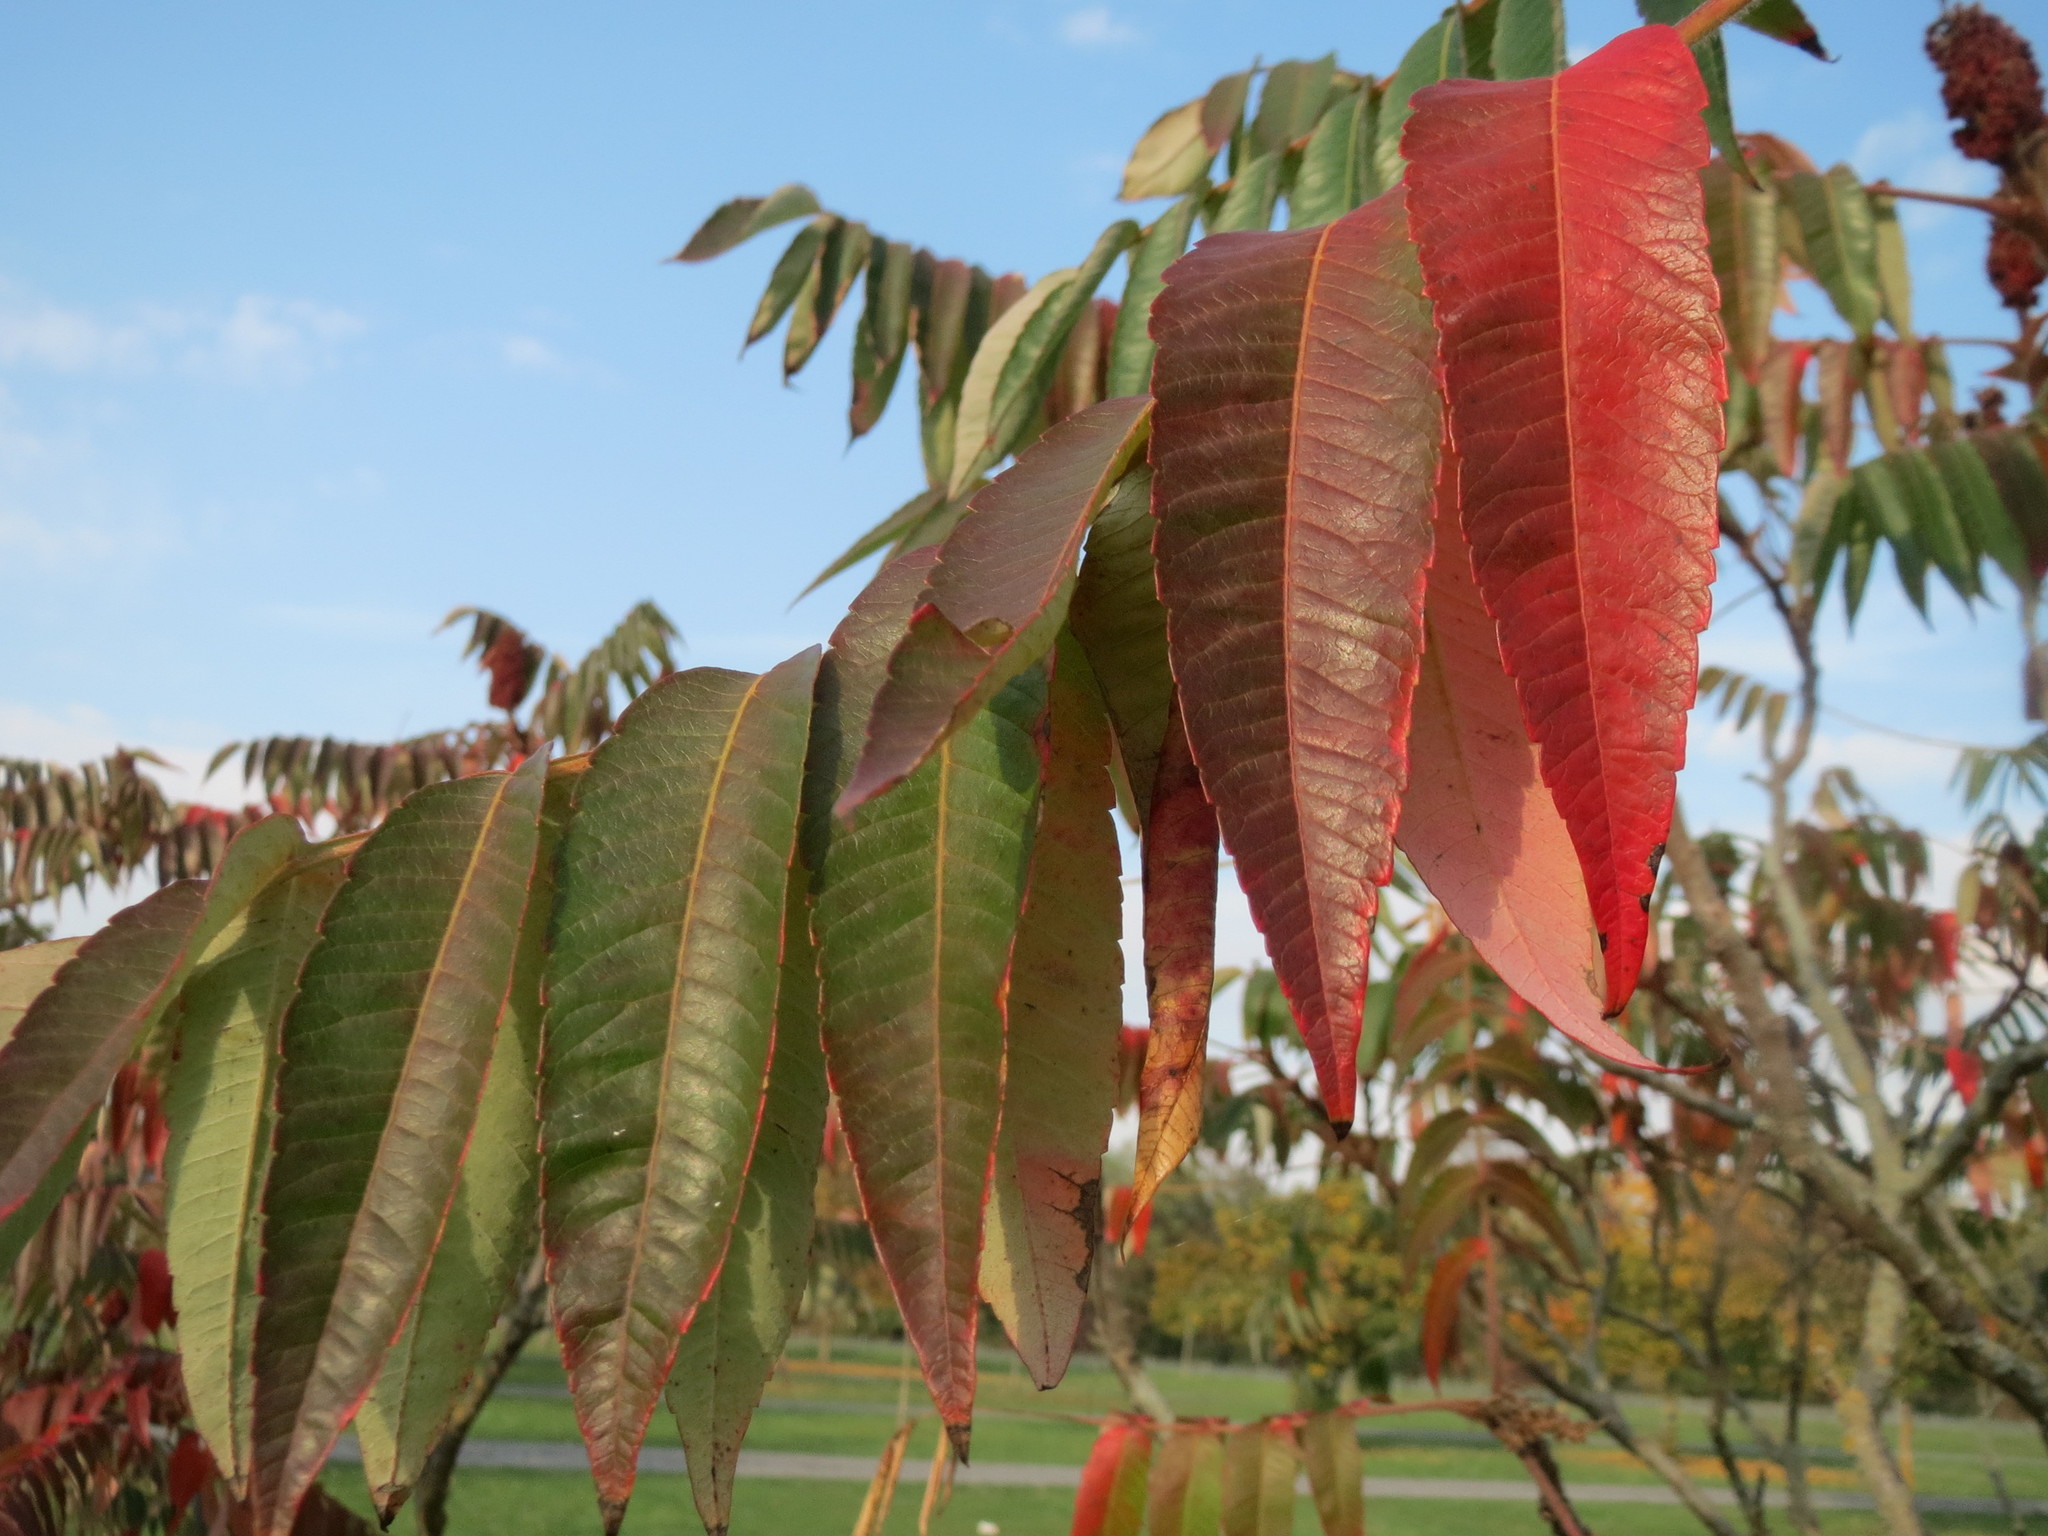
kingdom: Plantae
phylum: Tracheophyta
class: Magnoliopsida
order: Sapindales
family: Anacardiaceae
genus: Rhus
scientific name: Rhus typhina
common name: Staghorn sumac
